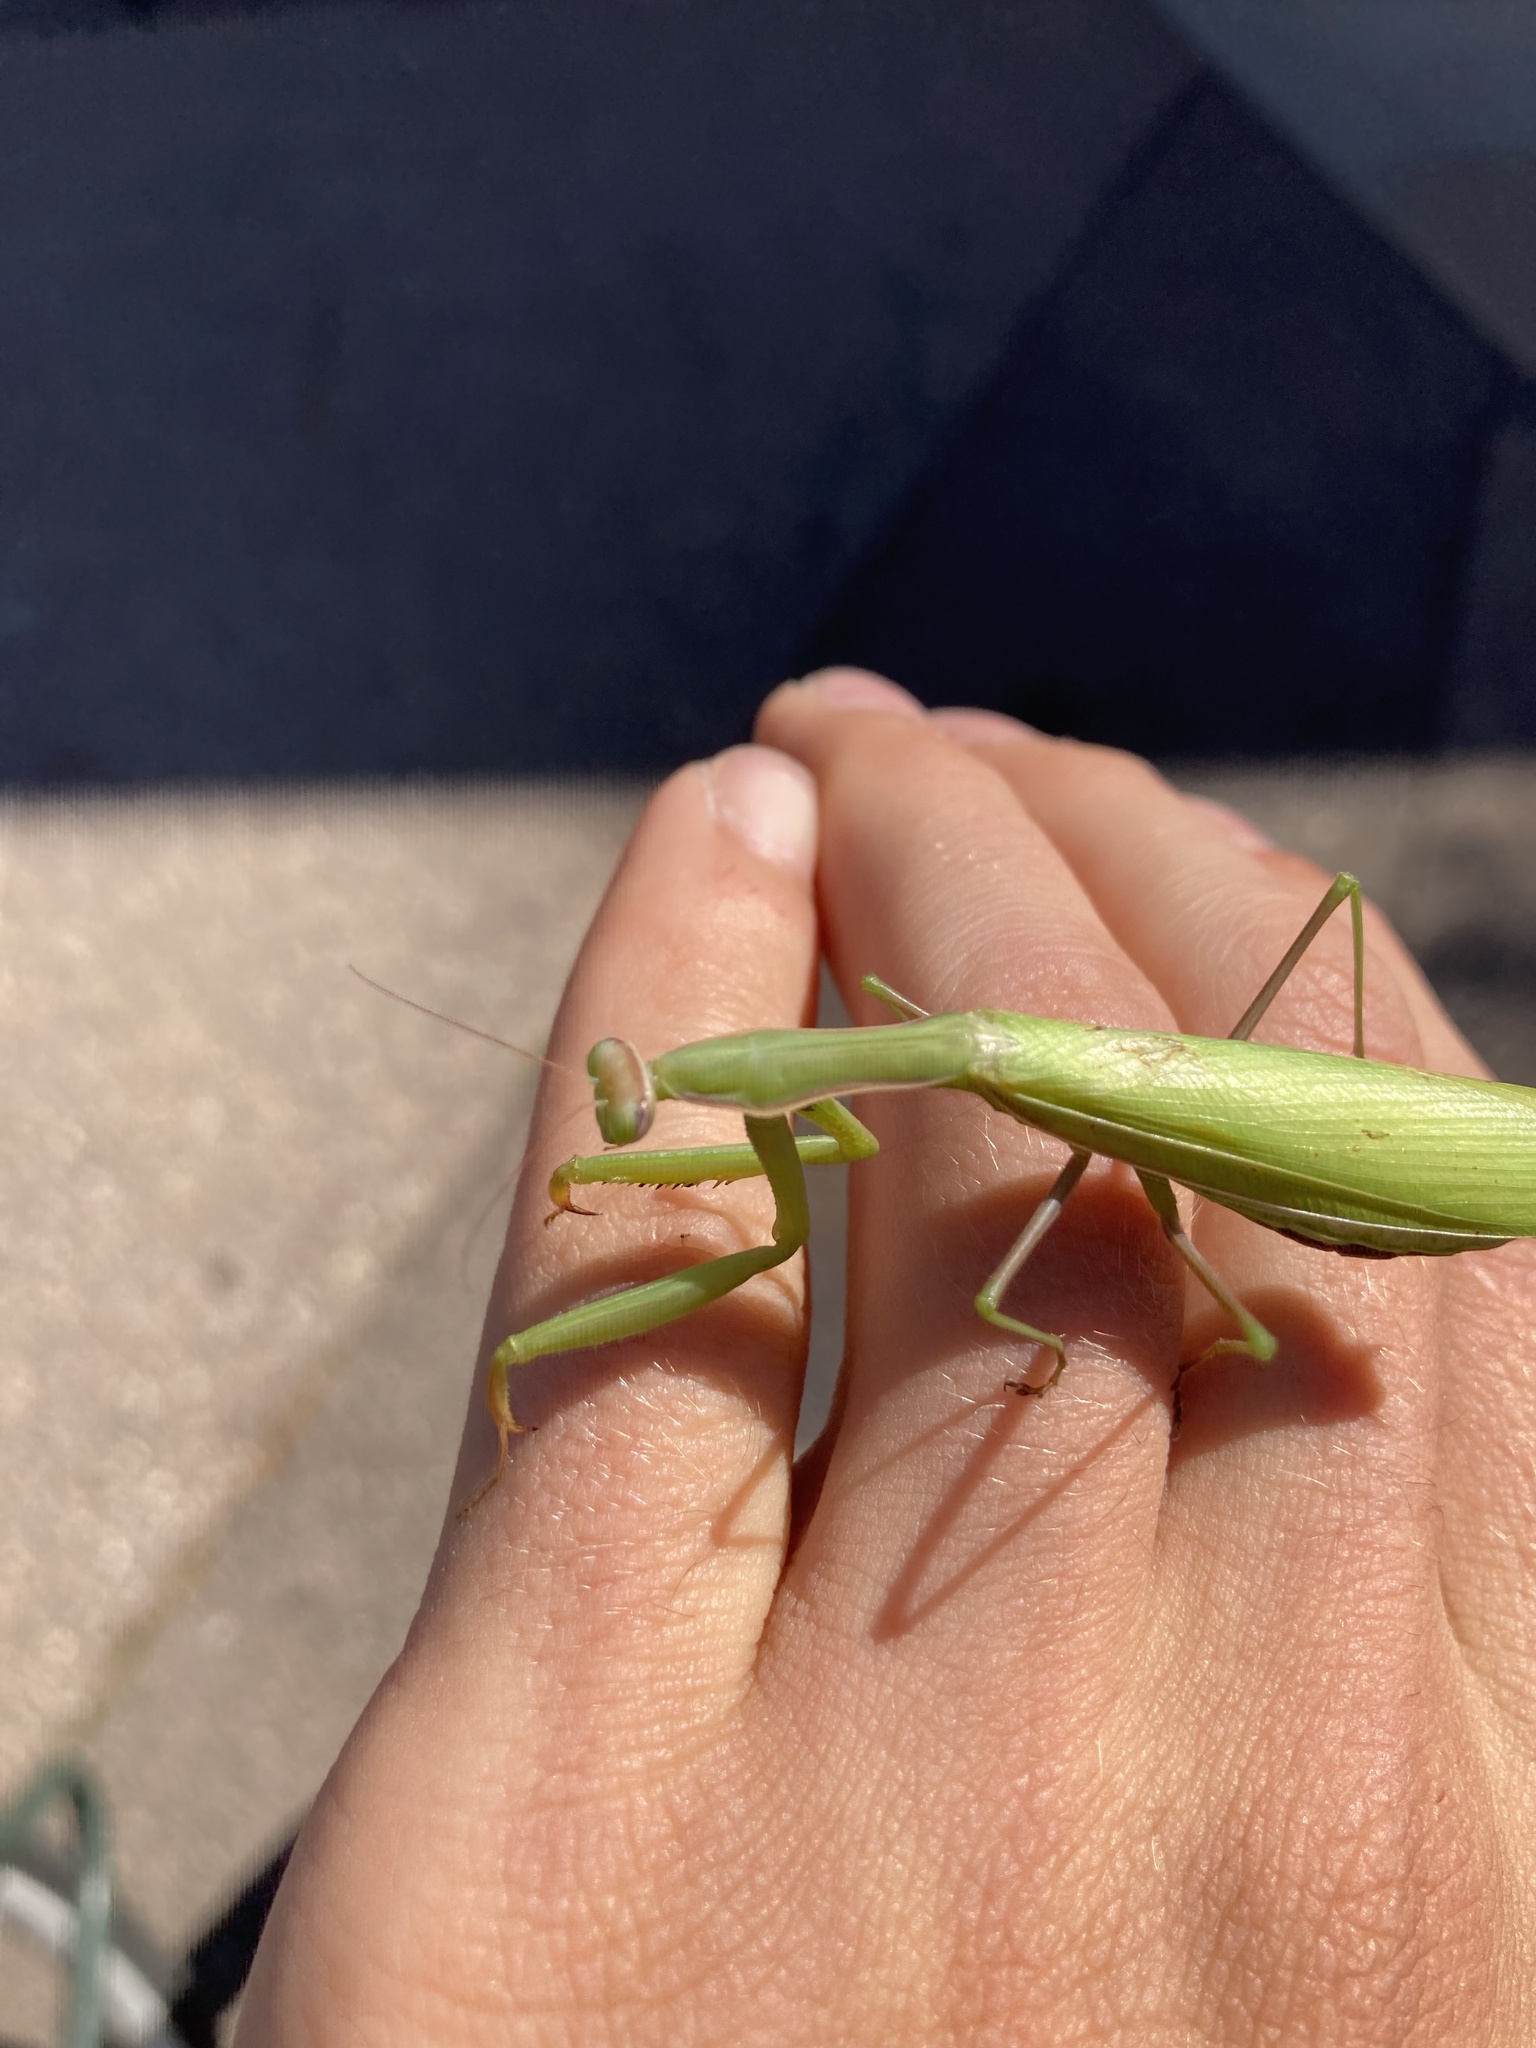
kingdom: Animalia
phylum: Arthropoda
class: Insecta
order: Mantodea
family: Mantidae
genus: Mantis
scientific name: Mantis religiosa
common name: Praying mantis
